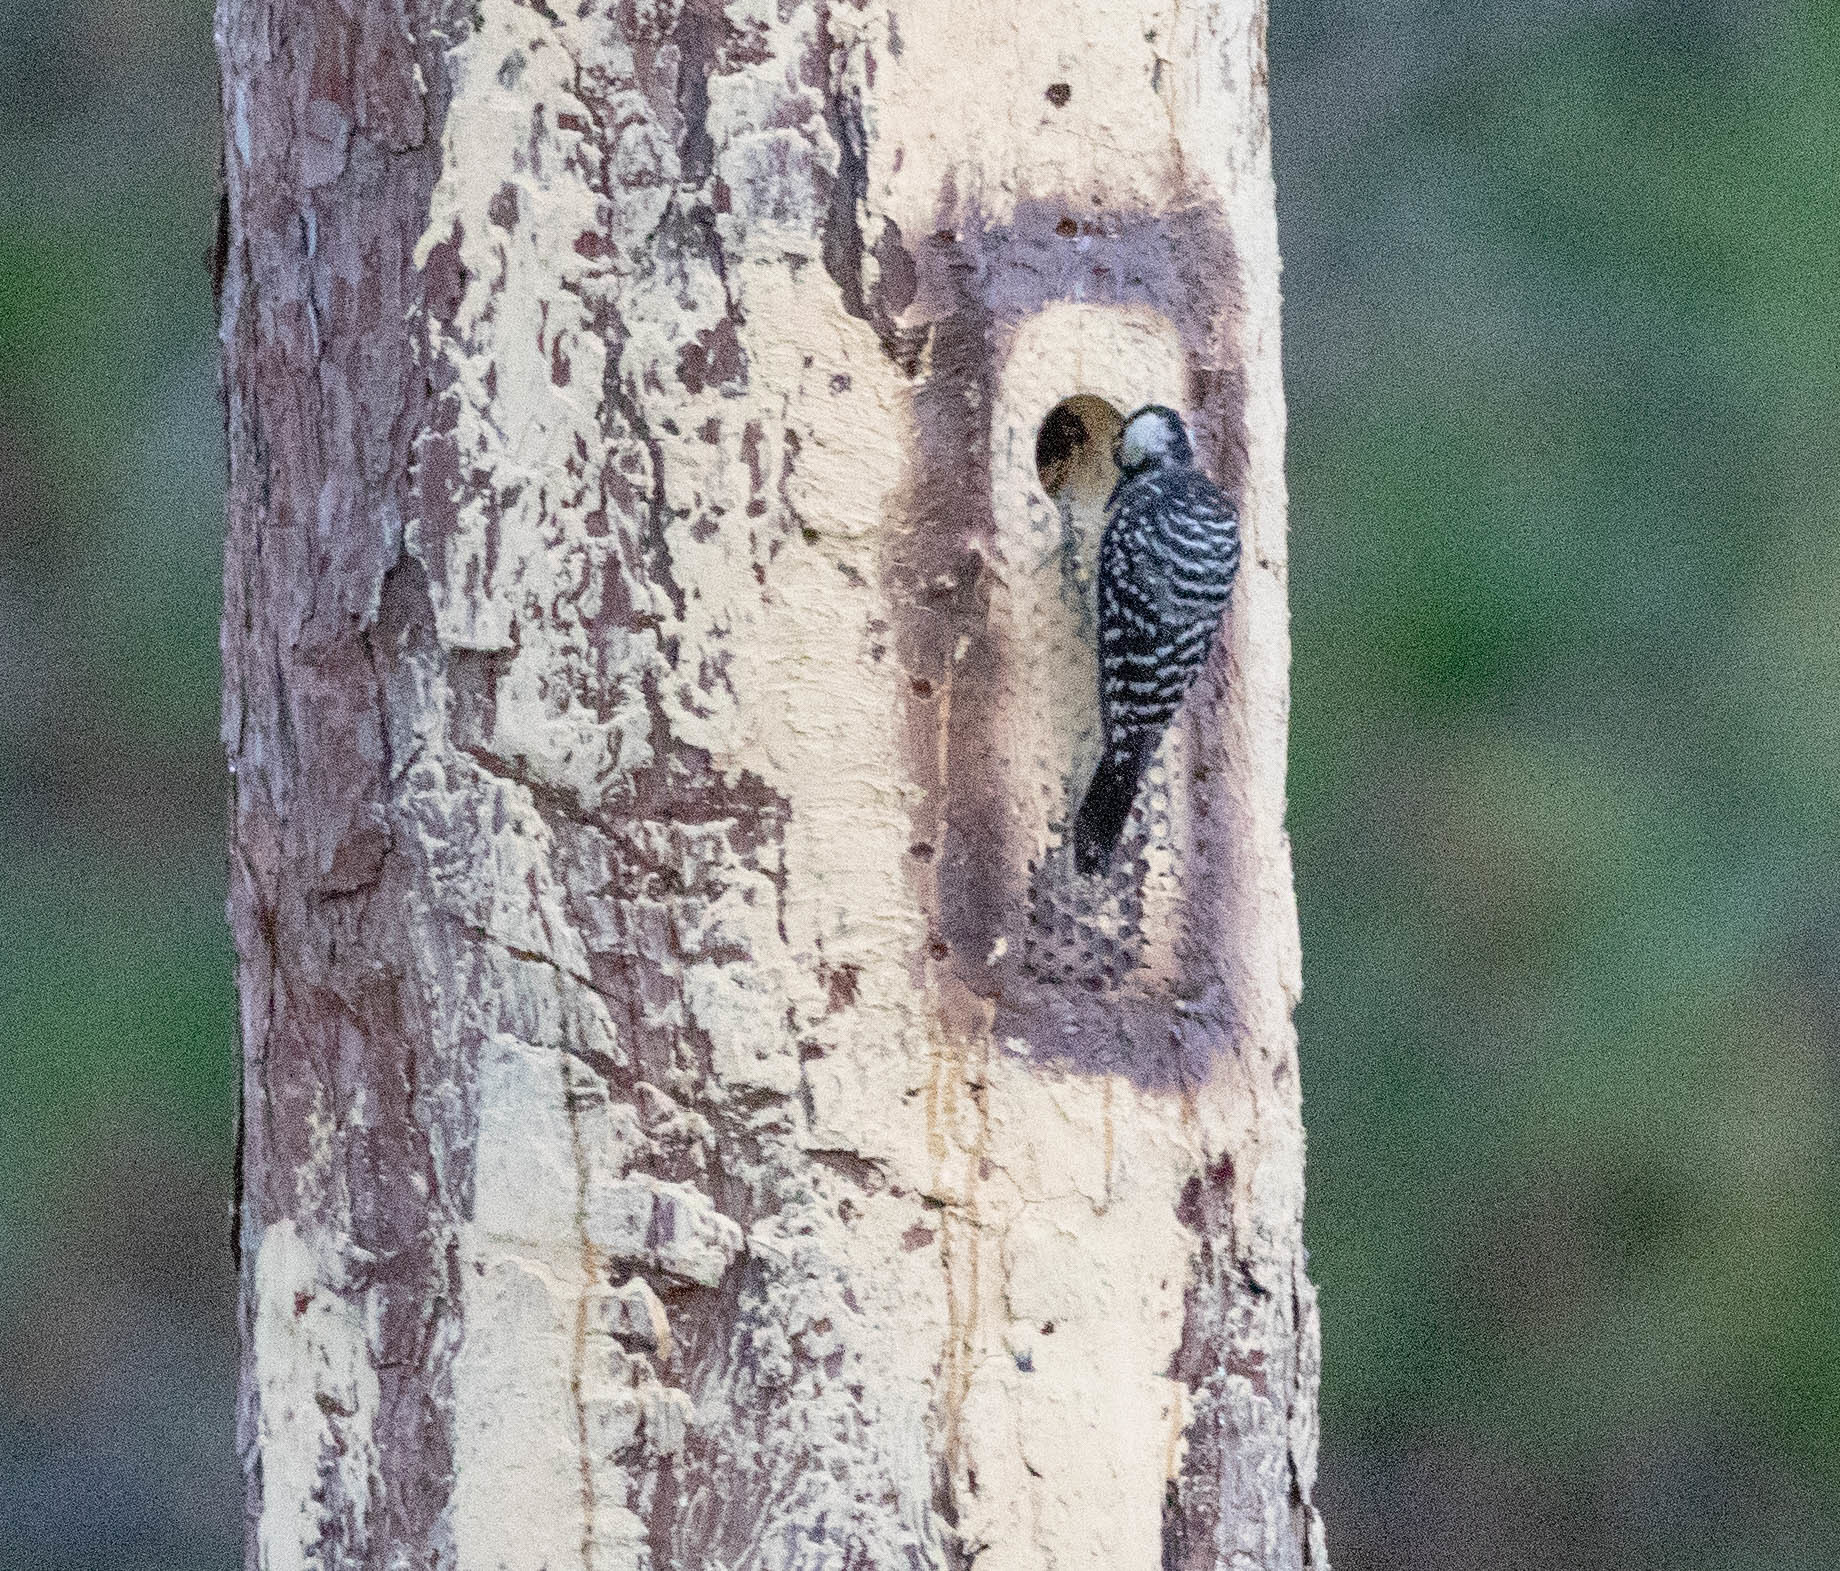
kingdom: Animalia
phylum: Chordata
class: Aves
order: Piciformes
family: Picidae
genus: Leuconotopicus
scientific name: Leuconotopicus borealis
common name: Red-cockaded woodpecker
